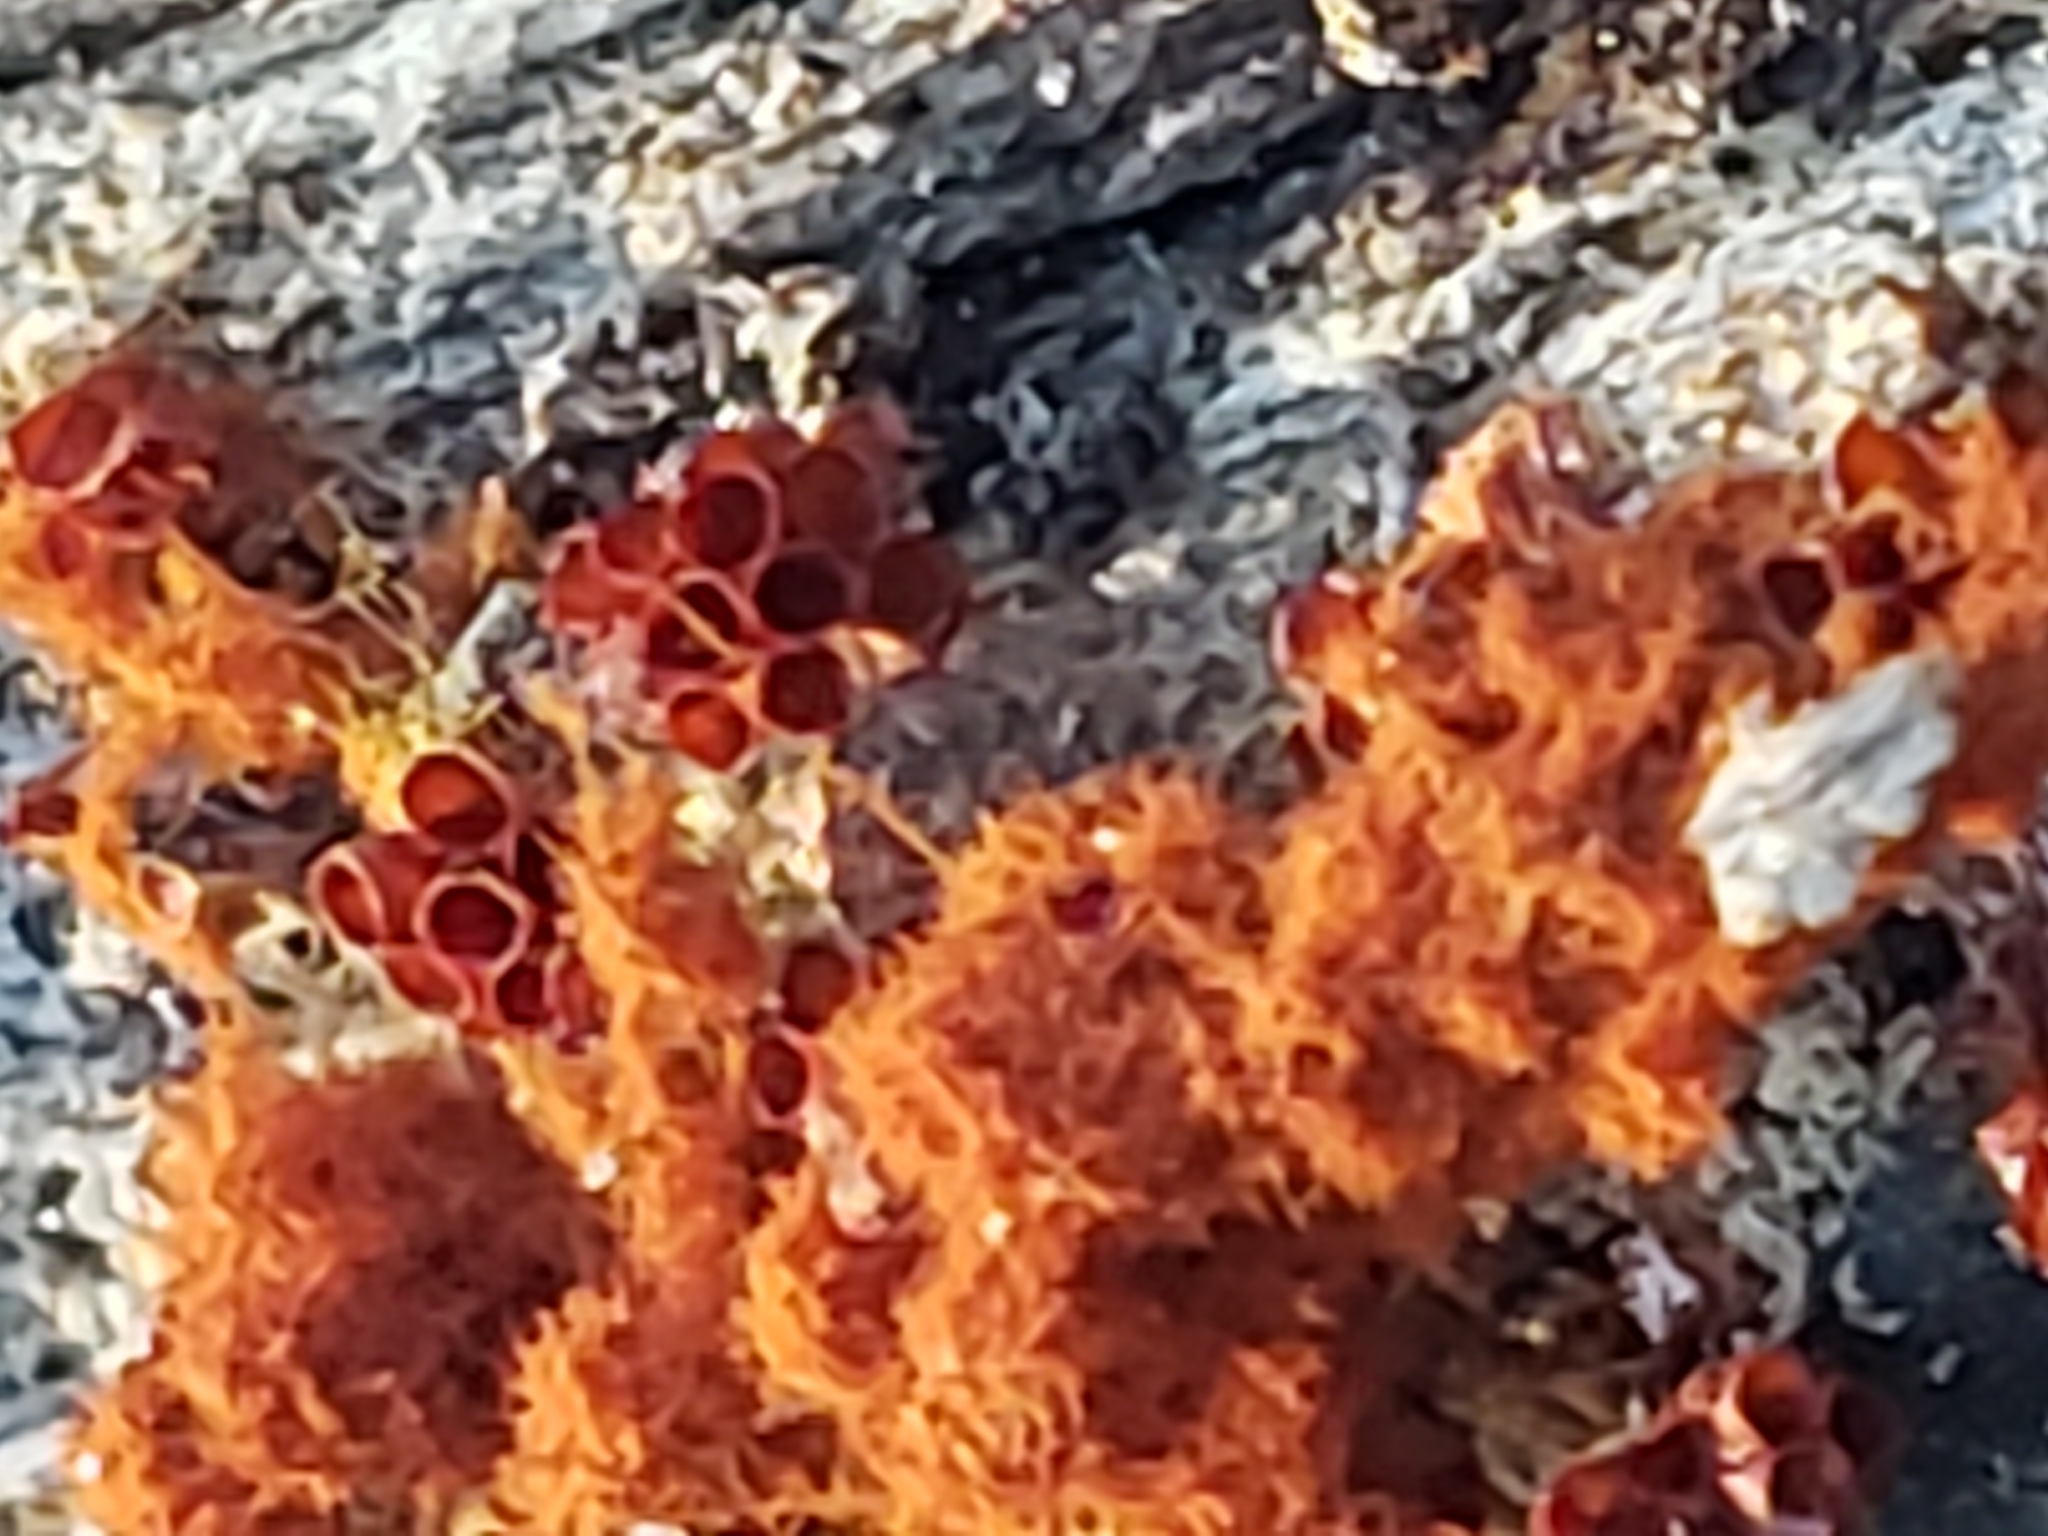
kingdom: Protozoa
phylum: Mycetozoa
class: Myxomycetes
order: Trichiales
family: Trichiaceae
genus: Metatrichia
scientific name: Metatrichia vesparia
